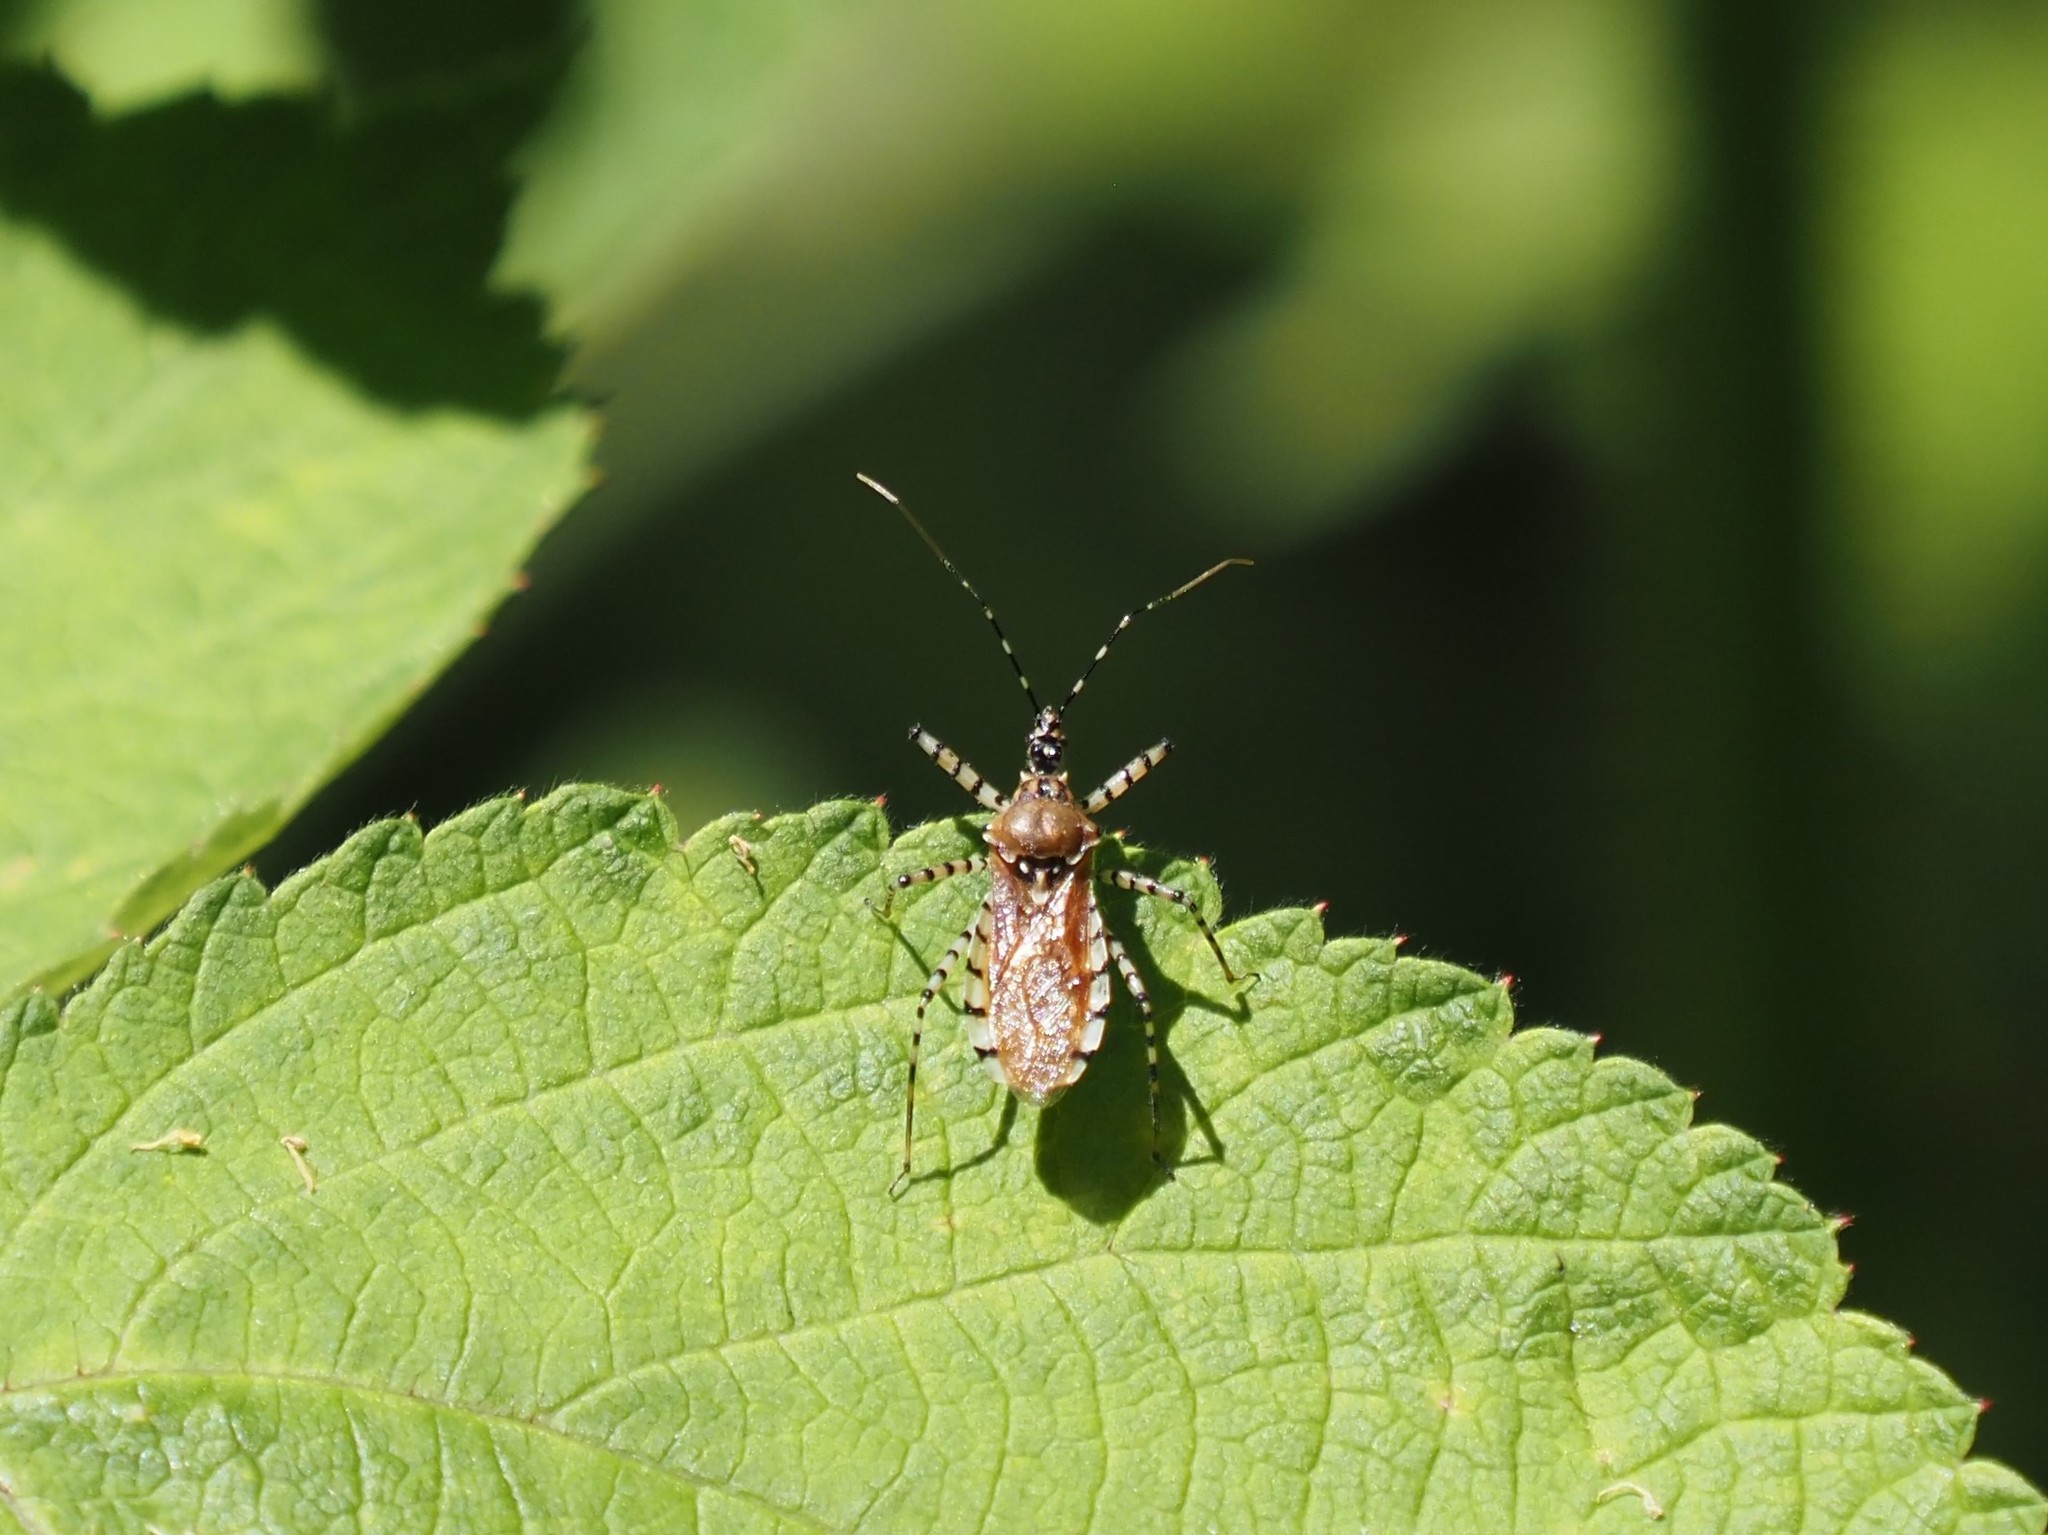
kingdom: Animalia
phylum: Arthropoda
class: Insecta
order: Hemiptera
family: Reduviidae
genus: Pselliopus
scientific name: Pselliopus cinctus
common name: Ringed assassin bug
